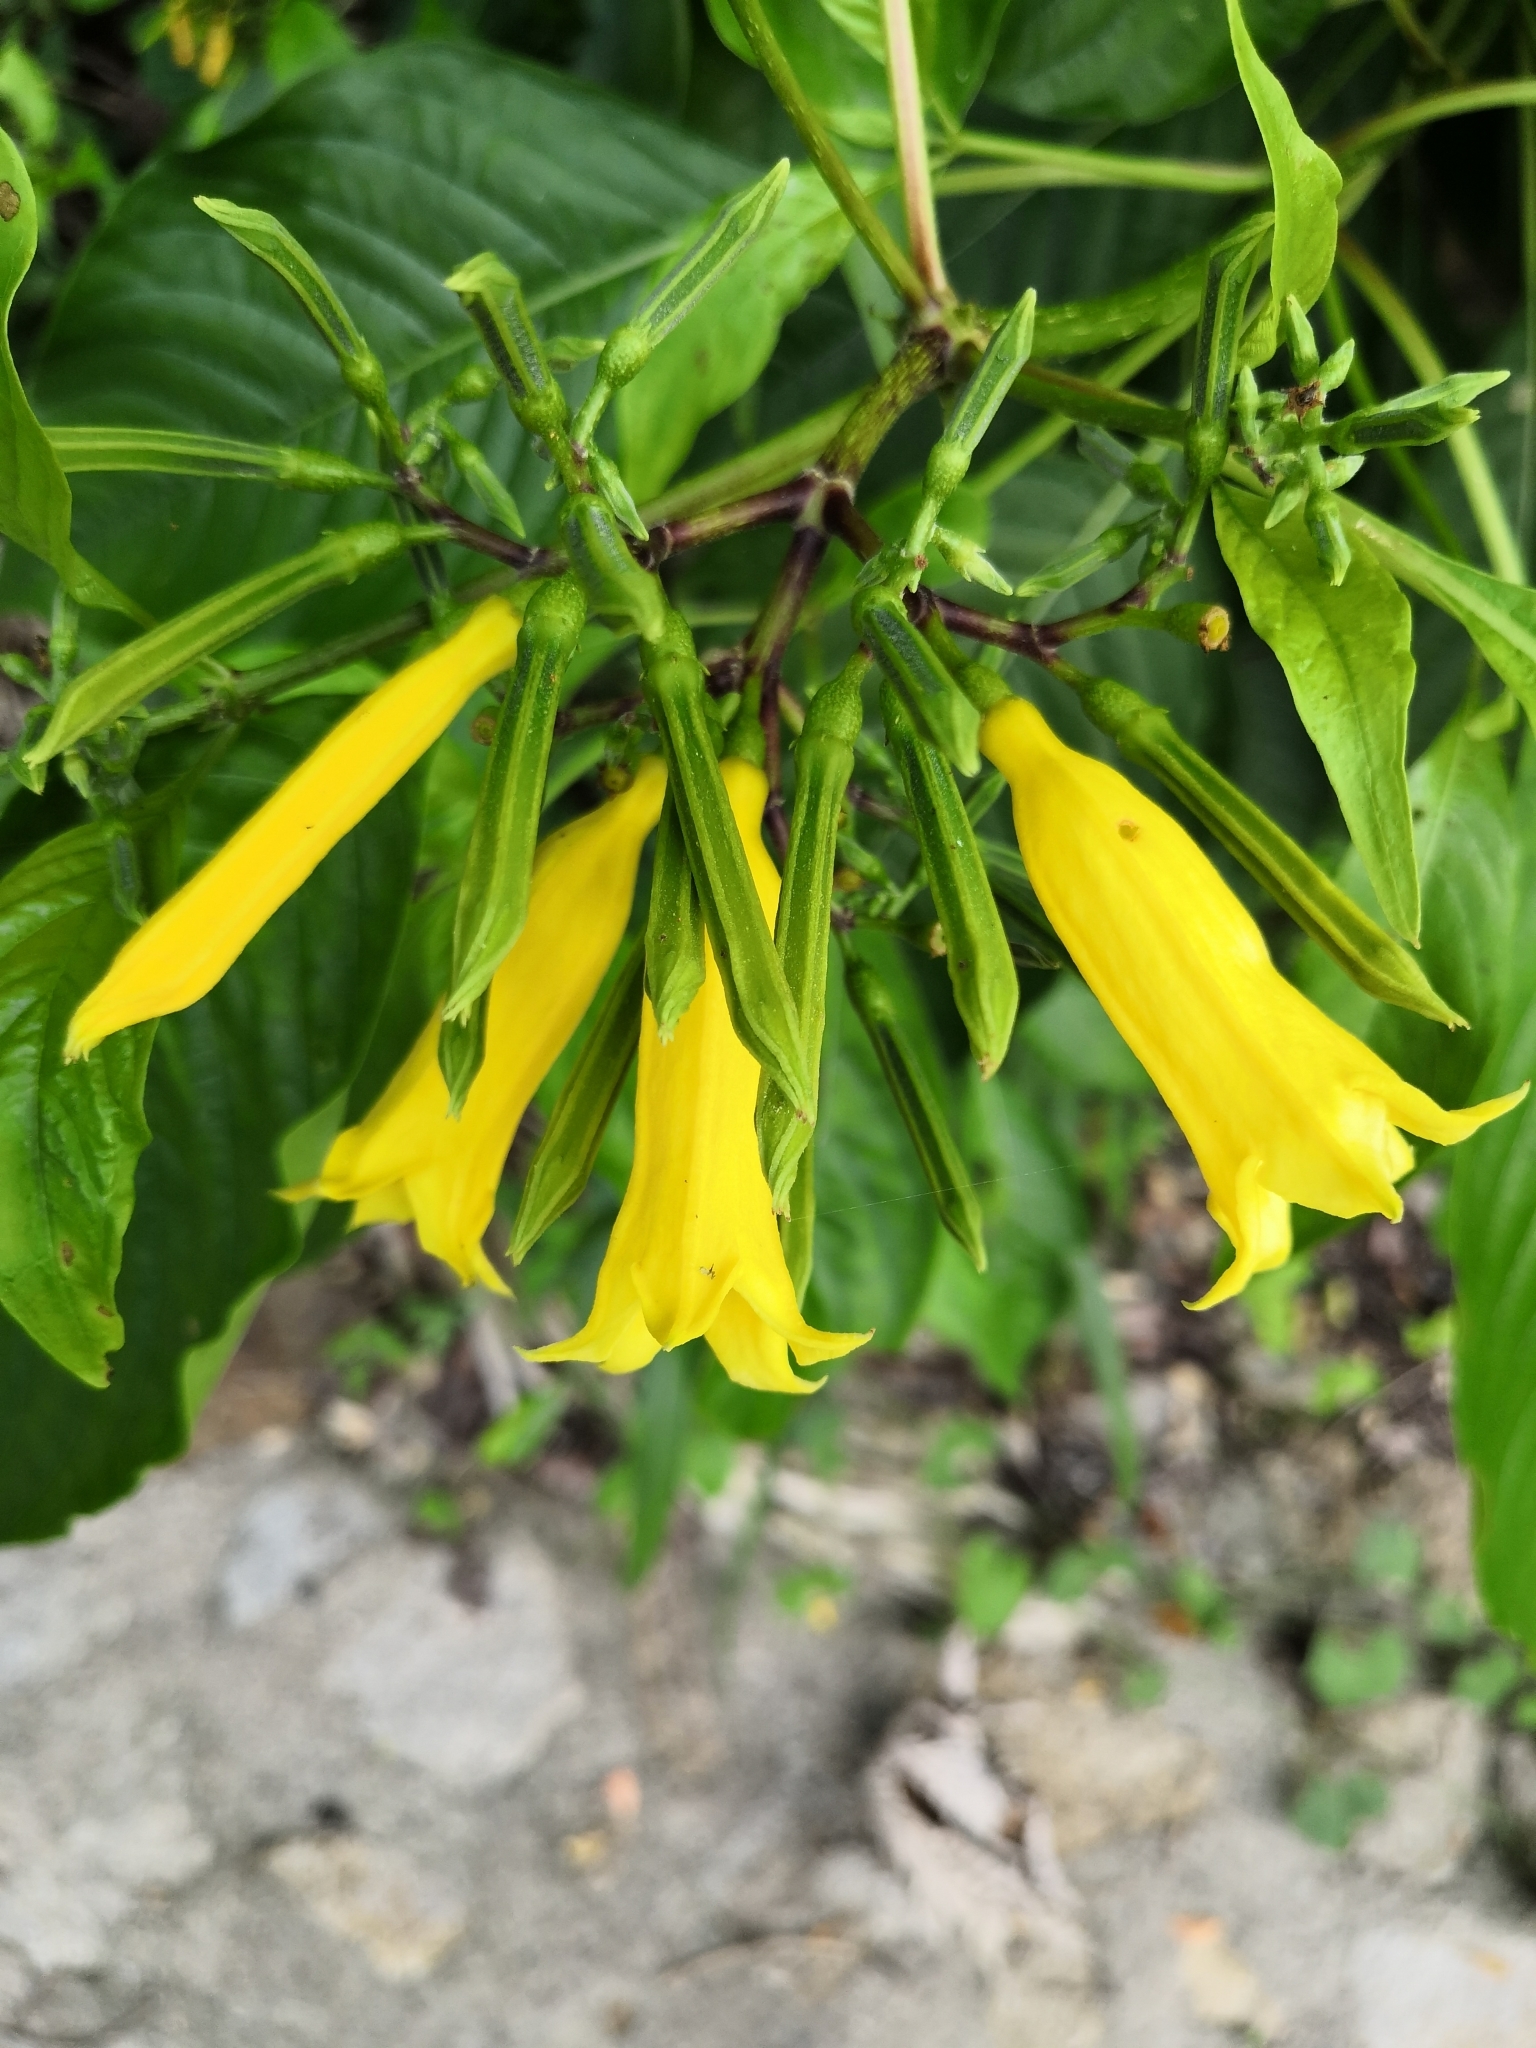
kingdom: Plantae
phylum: Tracheophyta
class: Magnoliopsida
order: Gentianales
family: Rubiaceae
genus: Hamelia
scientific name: Hamelia xorullensis
